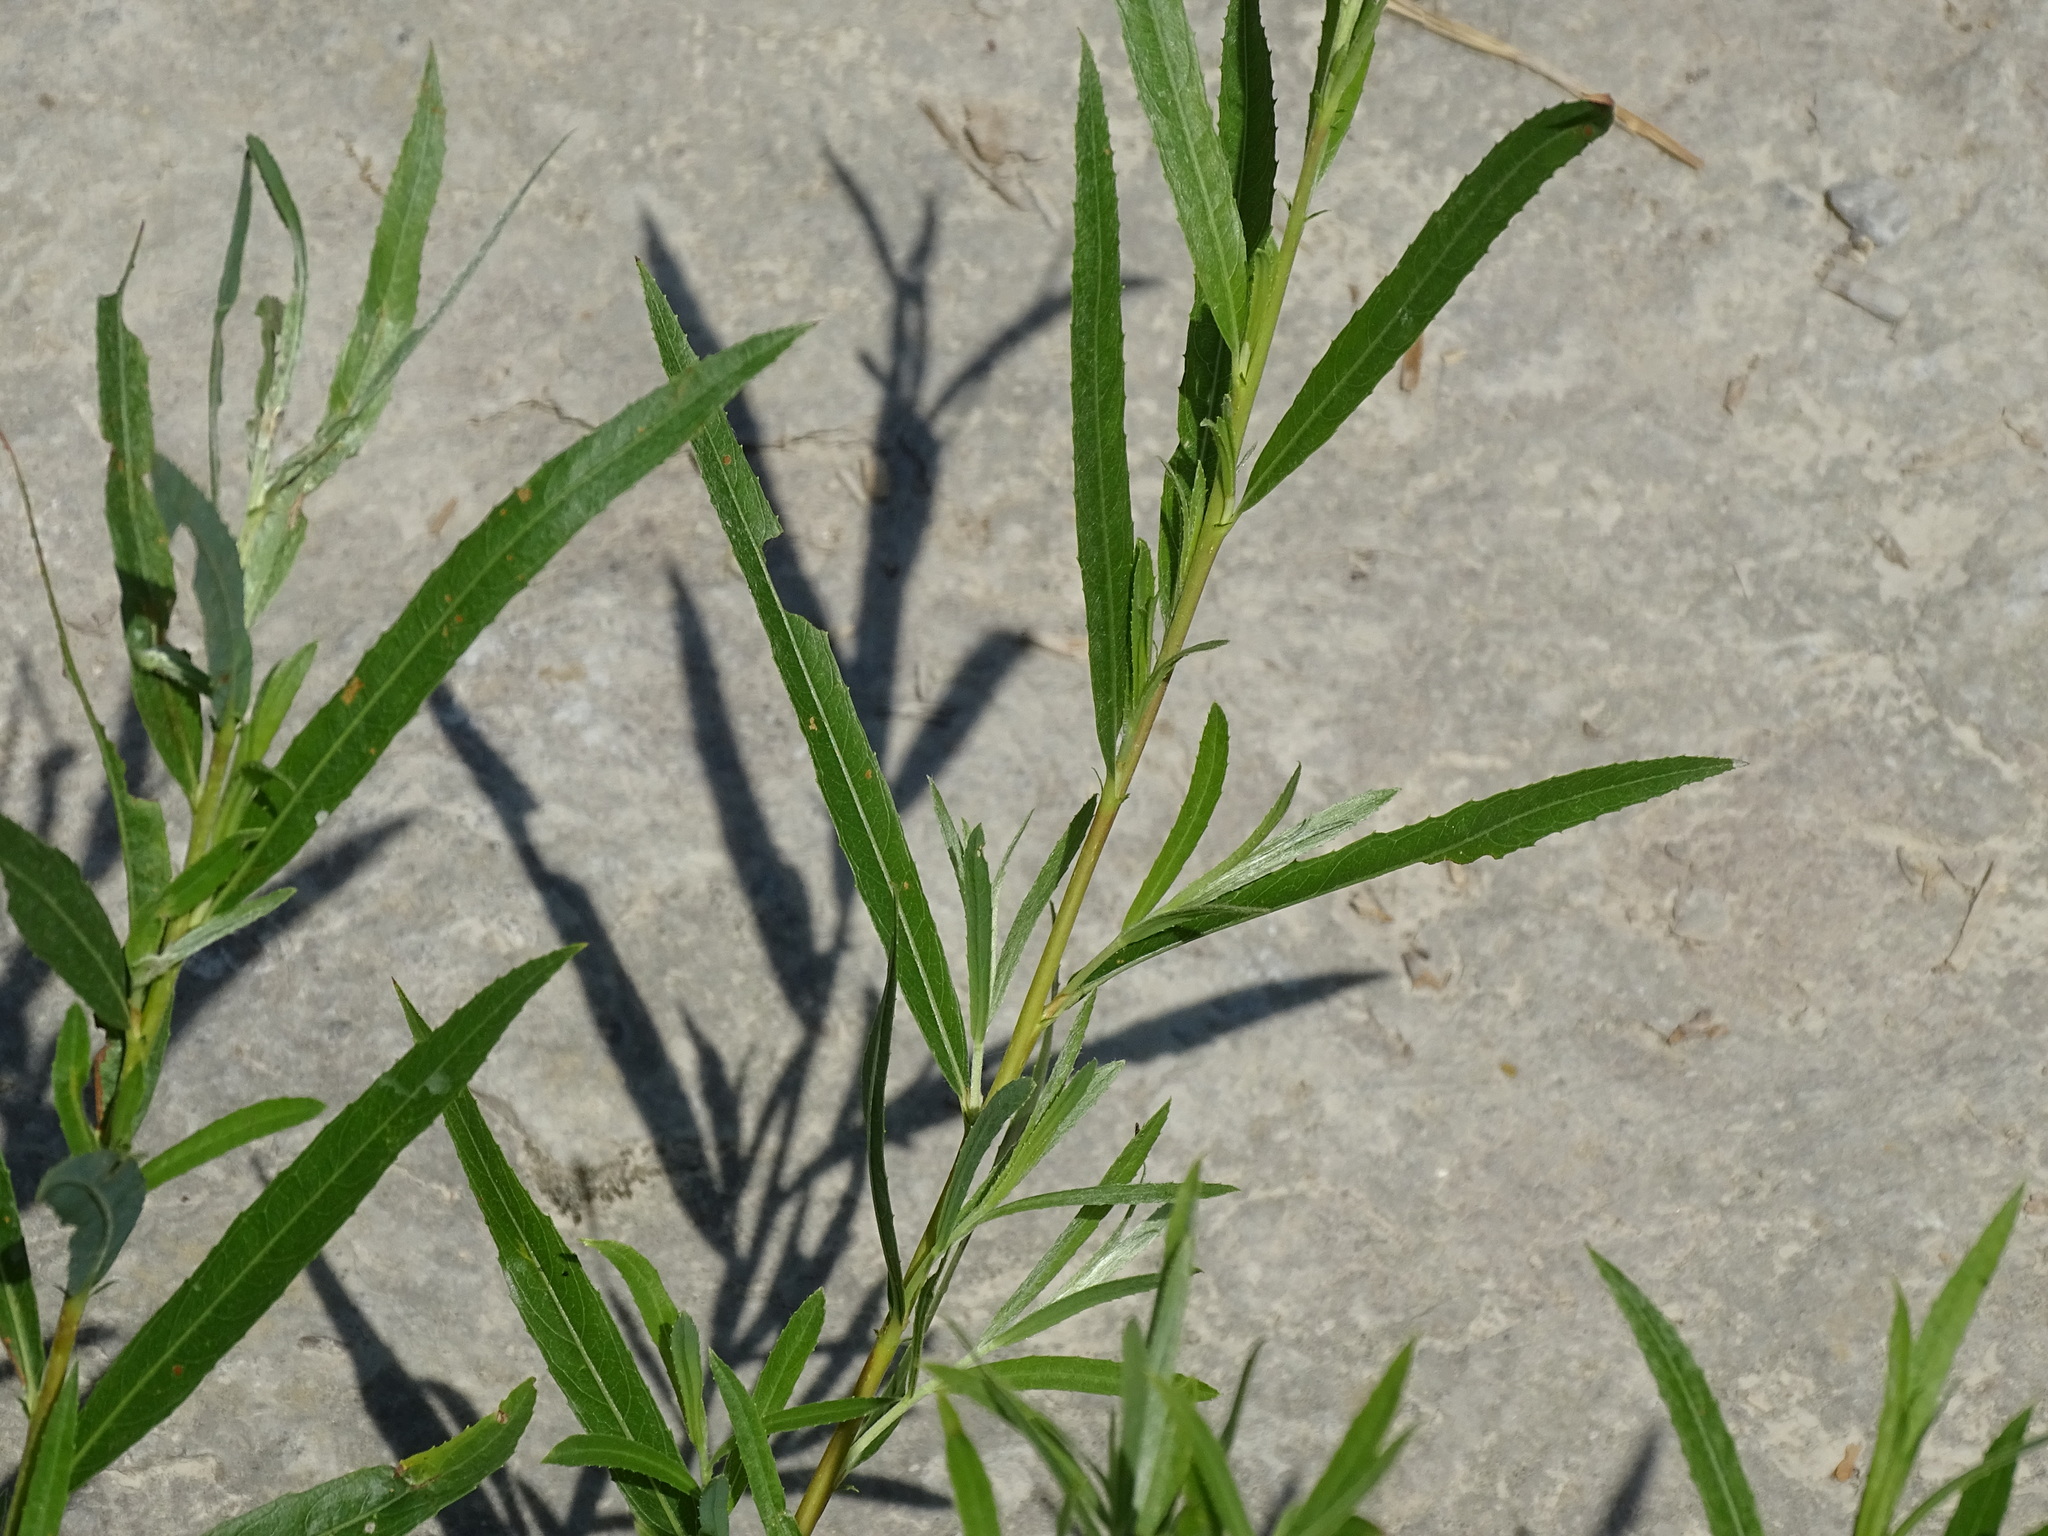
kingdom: Plantae
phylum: Tracheophyta
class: Magnoliopsida
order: Malpighiales
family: Salicaceae
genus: Salix
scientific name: Salix interior
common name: Sandbar willow
